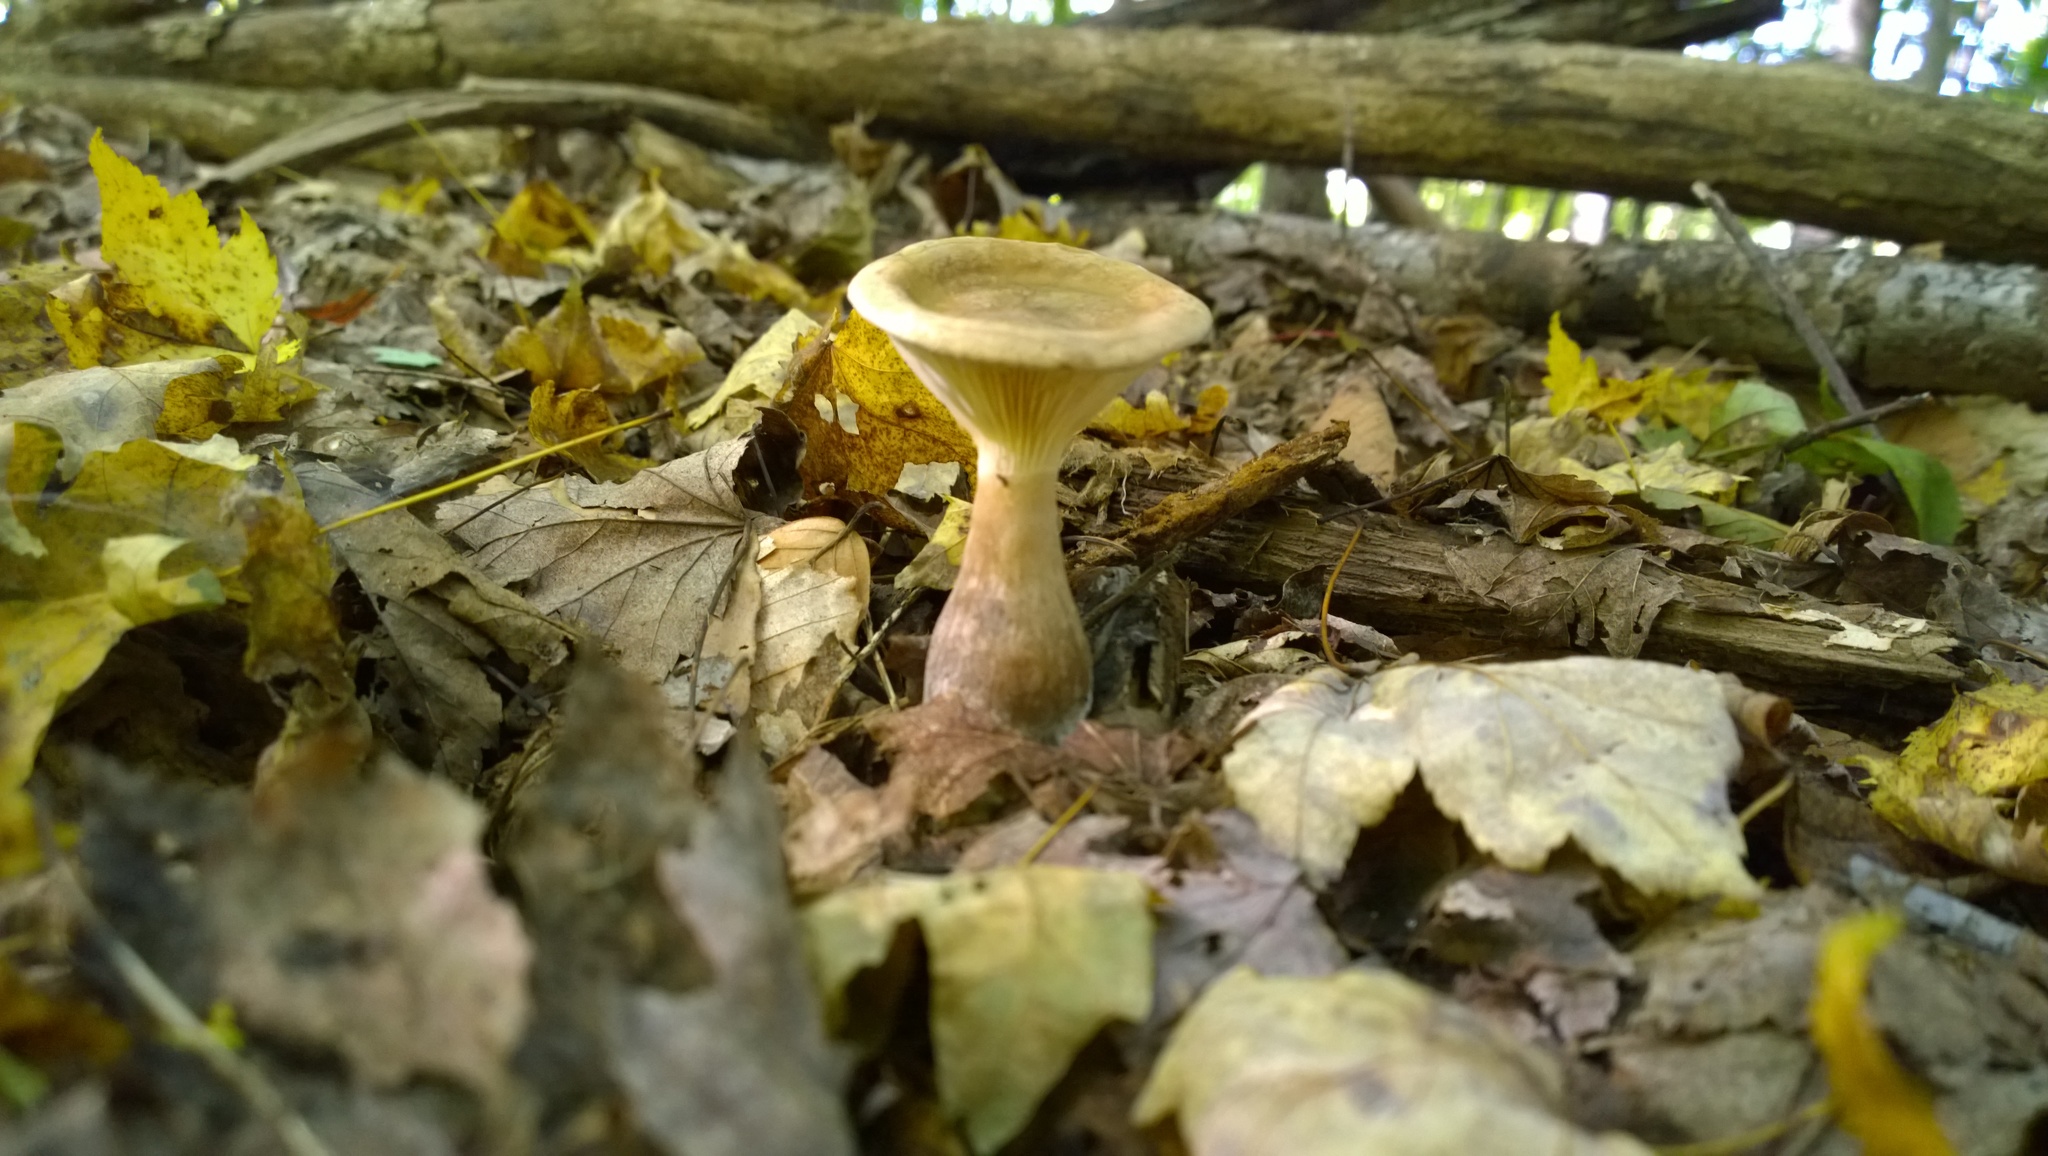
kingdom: Fungi
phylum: Basidiomycota
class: Agaricomycetes
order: Agaricales
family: Hygrophoraceae
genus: Ampulloclitocybe
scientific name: Ampulloclitocybe clavipes
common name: Club foot
